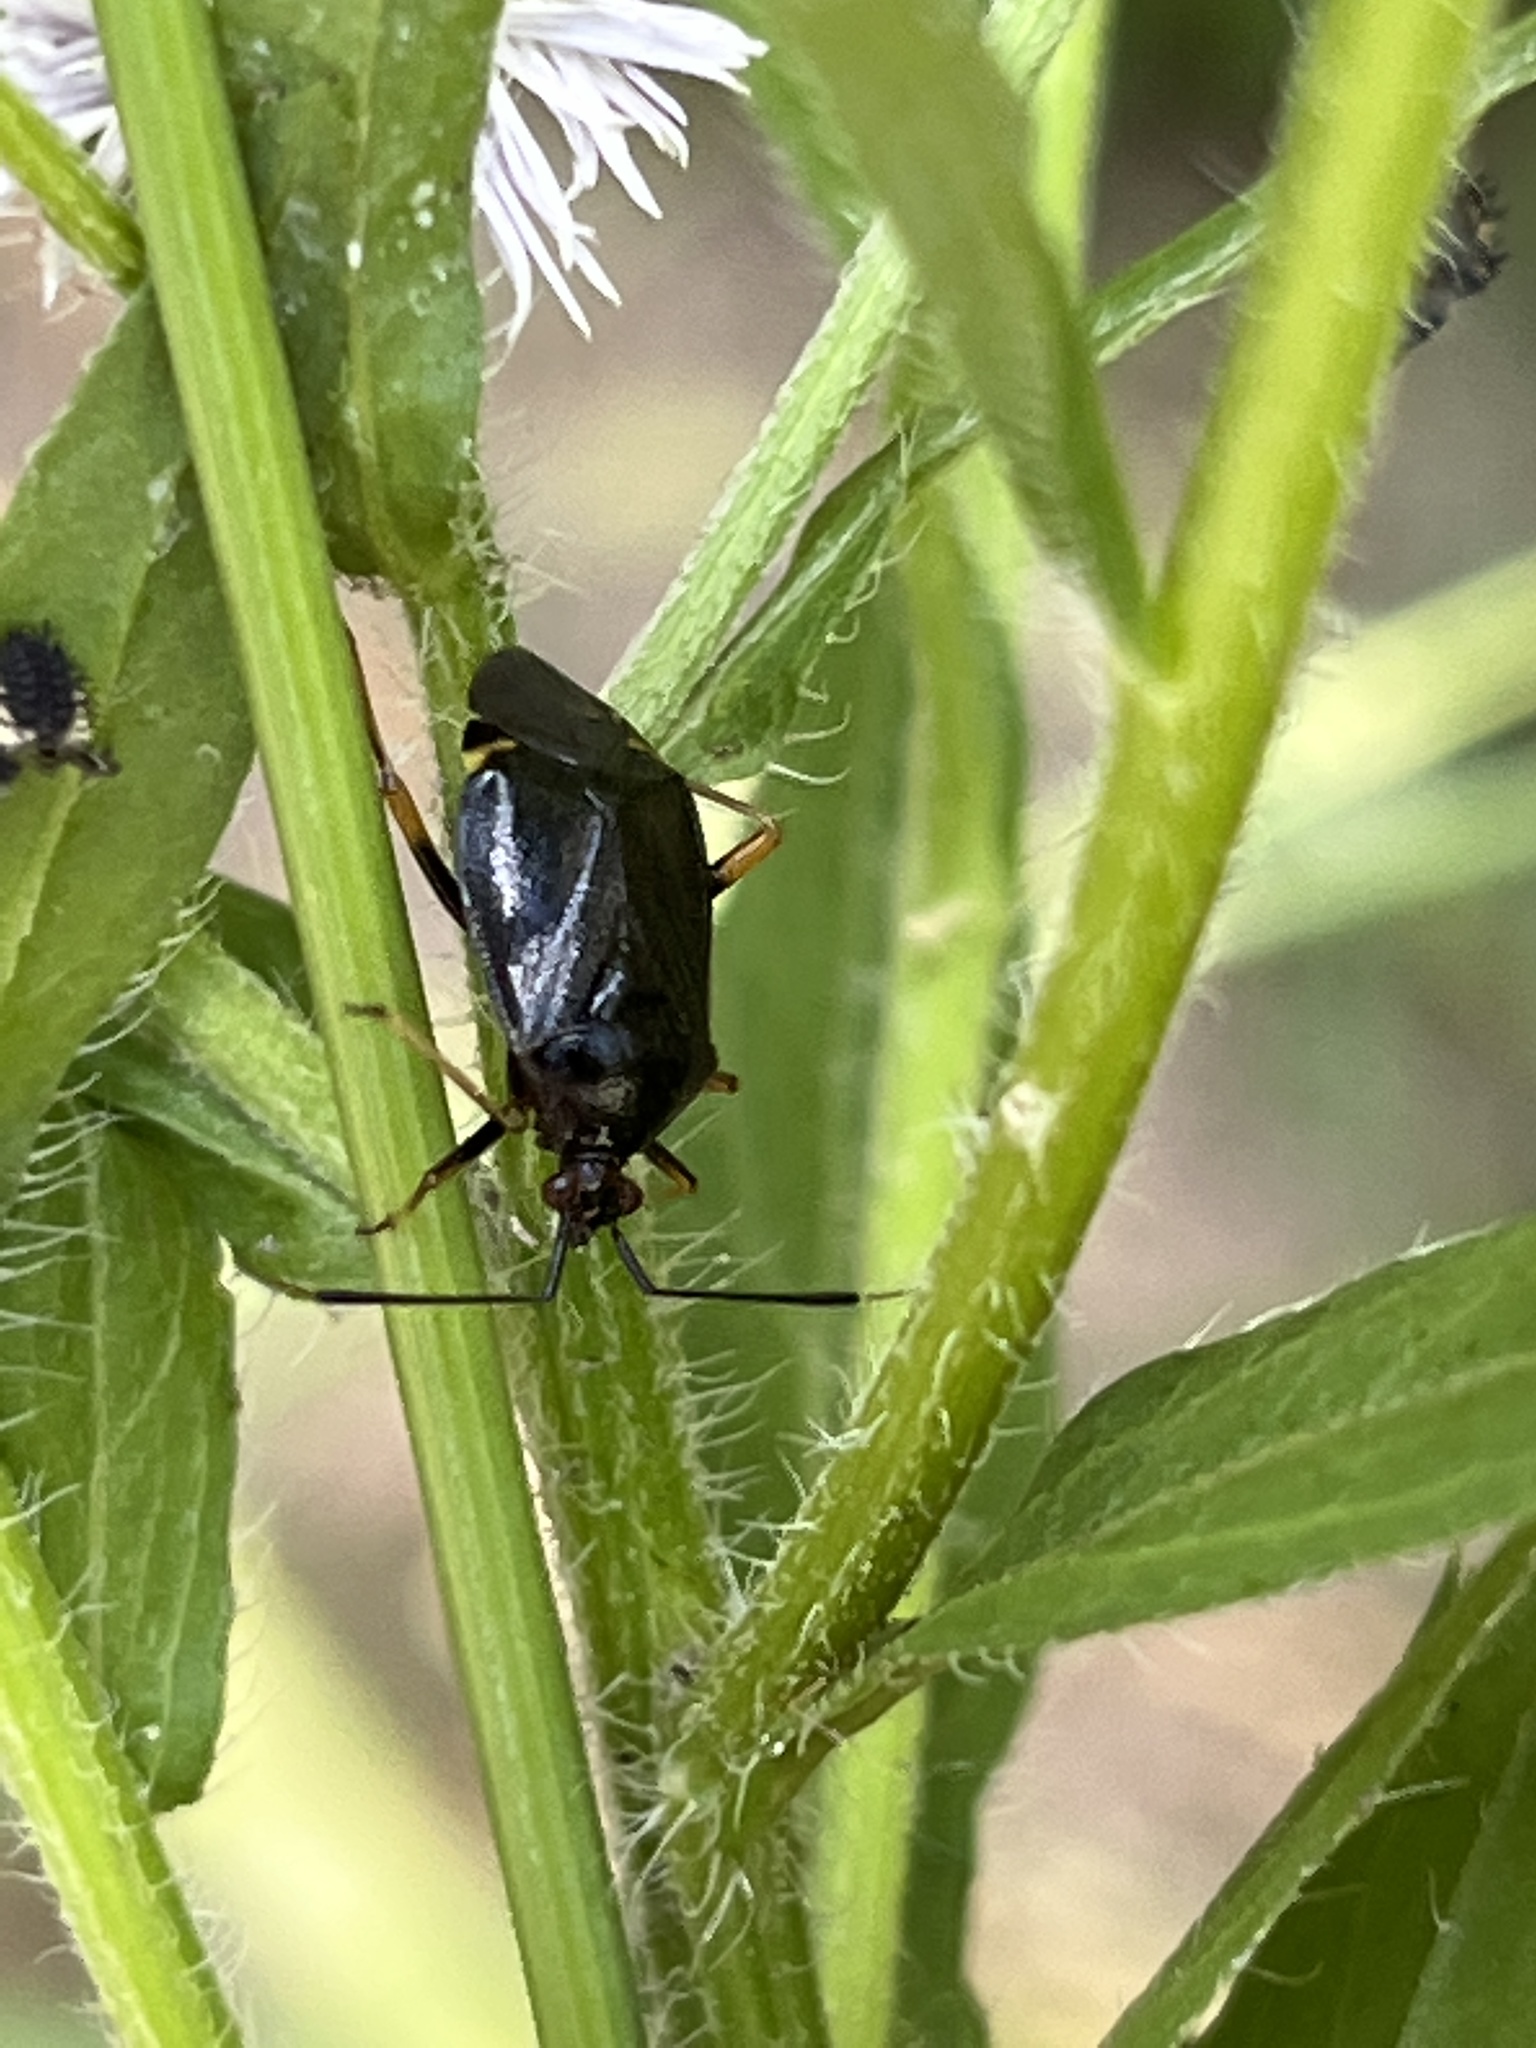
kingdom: Animalia
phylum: Arthropoda
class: Insecta
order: Hemiptera
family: Miridae
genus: Deraeocoris
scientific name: Deraeocoris ater
